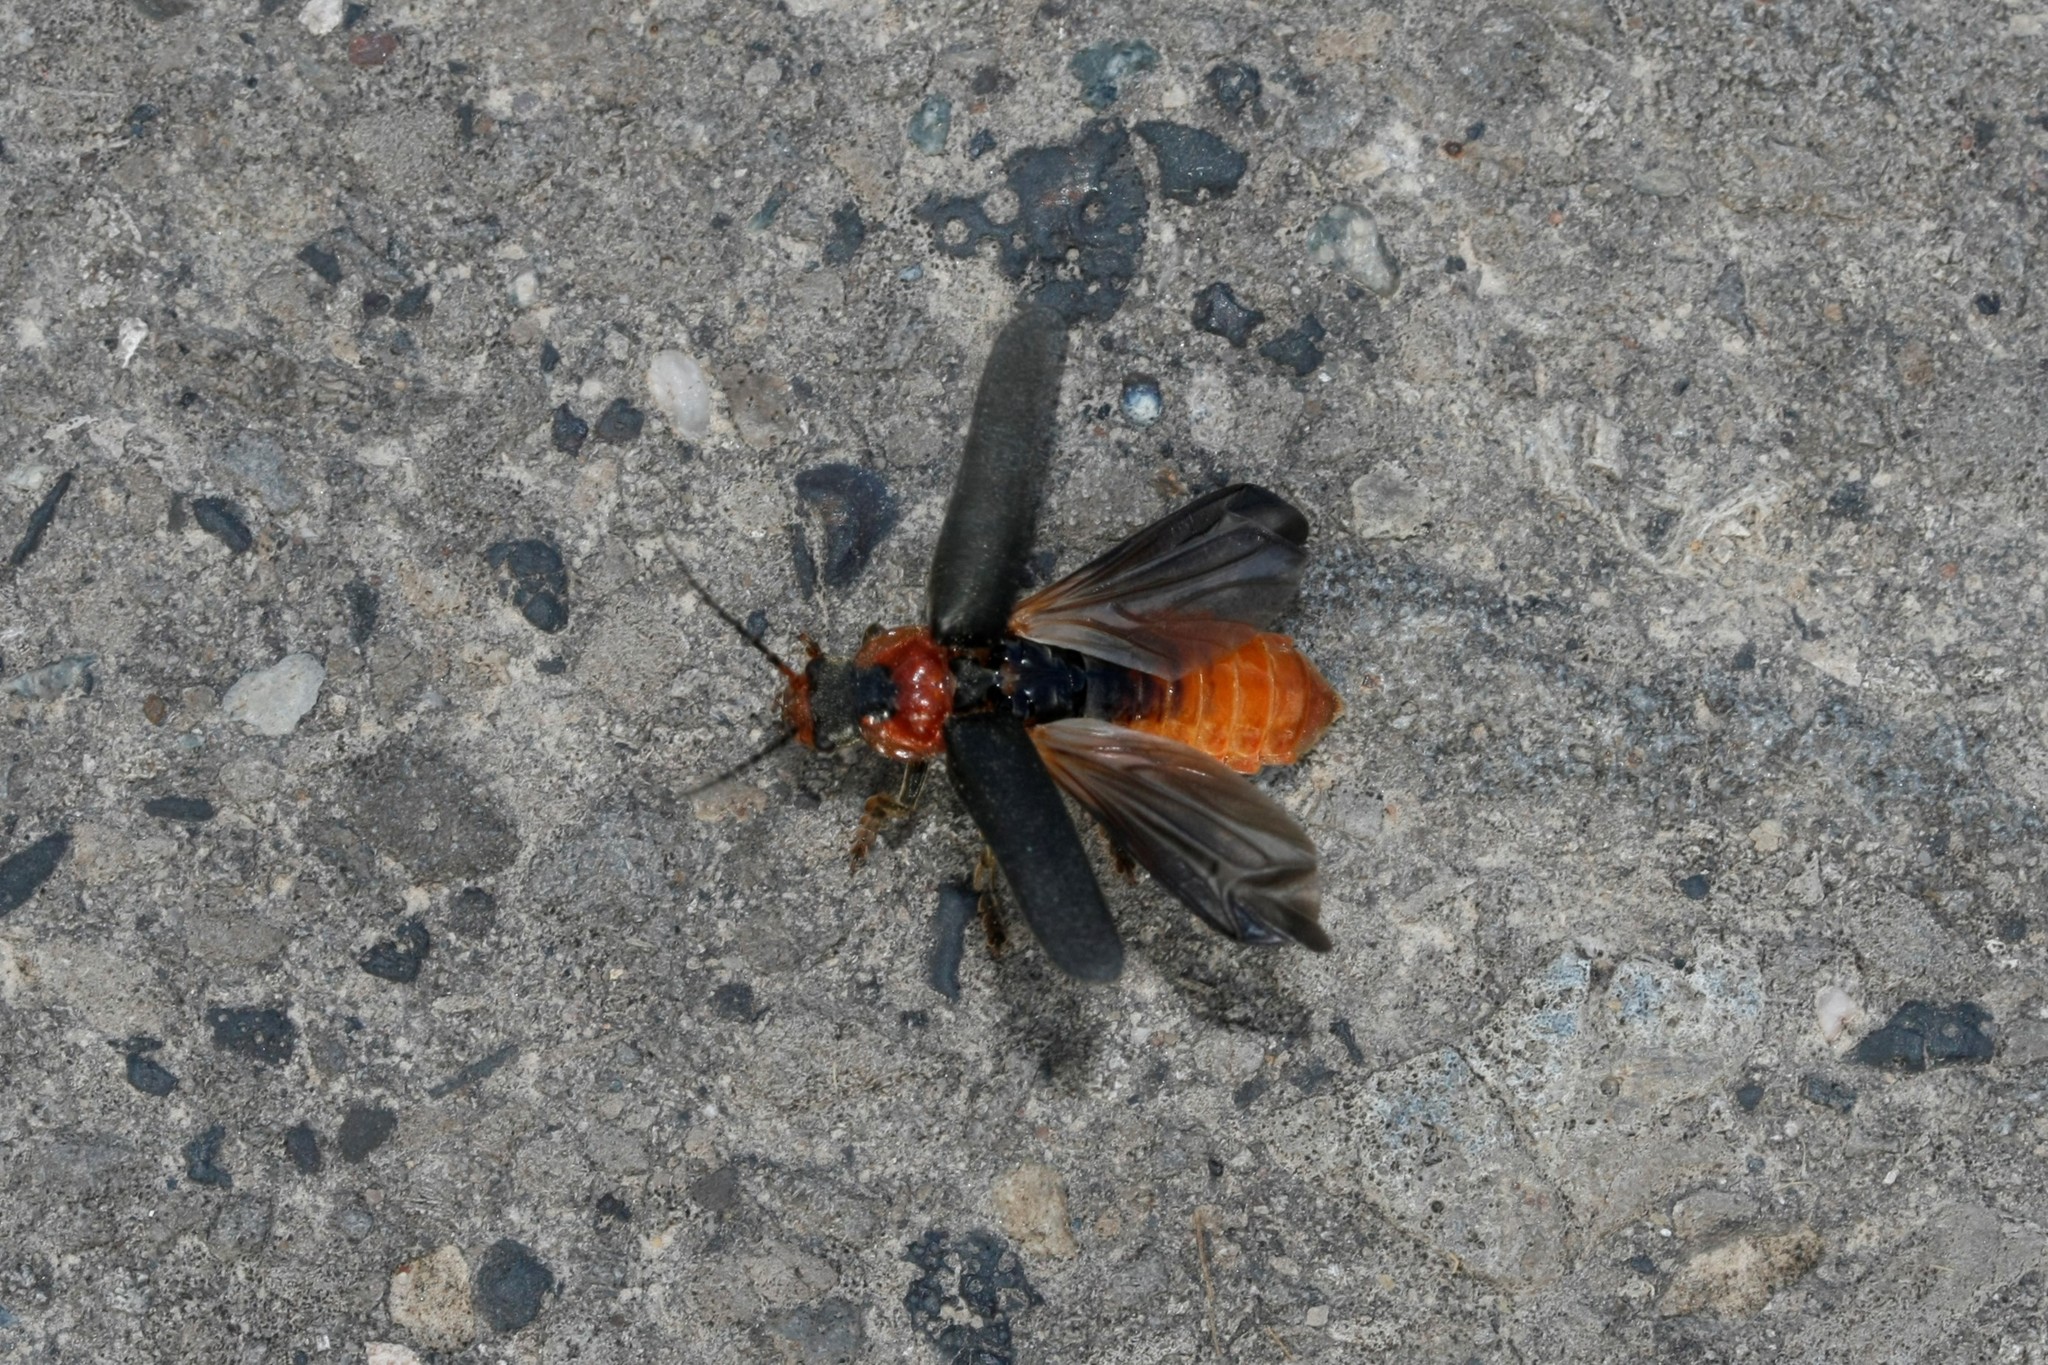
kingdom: Animalia
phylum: Arthropoda
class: Insecta
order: Coleoptera
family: Cantharidae
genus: Cantharis
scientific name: Cantharis fusca
